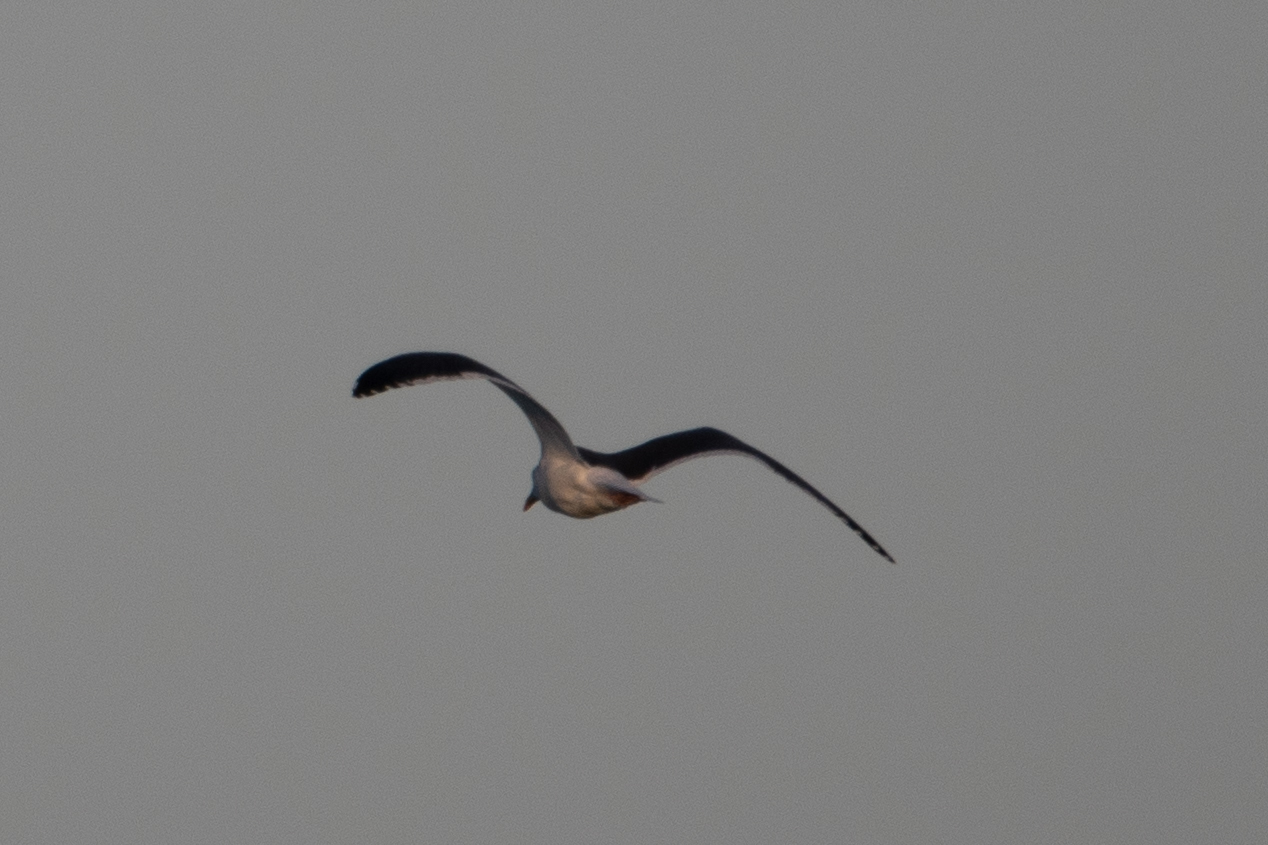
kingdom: Animalia
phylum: Chordata
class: Aves
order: Charadriiformes
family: Laridae
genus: Larus
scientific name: Larus occidentalis
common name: Western gull
